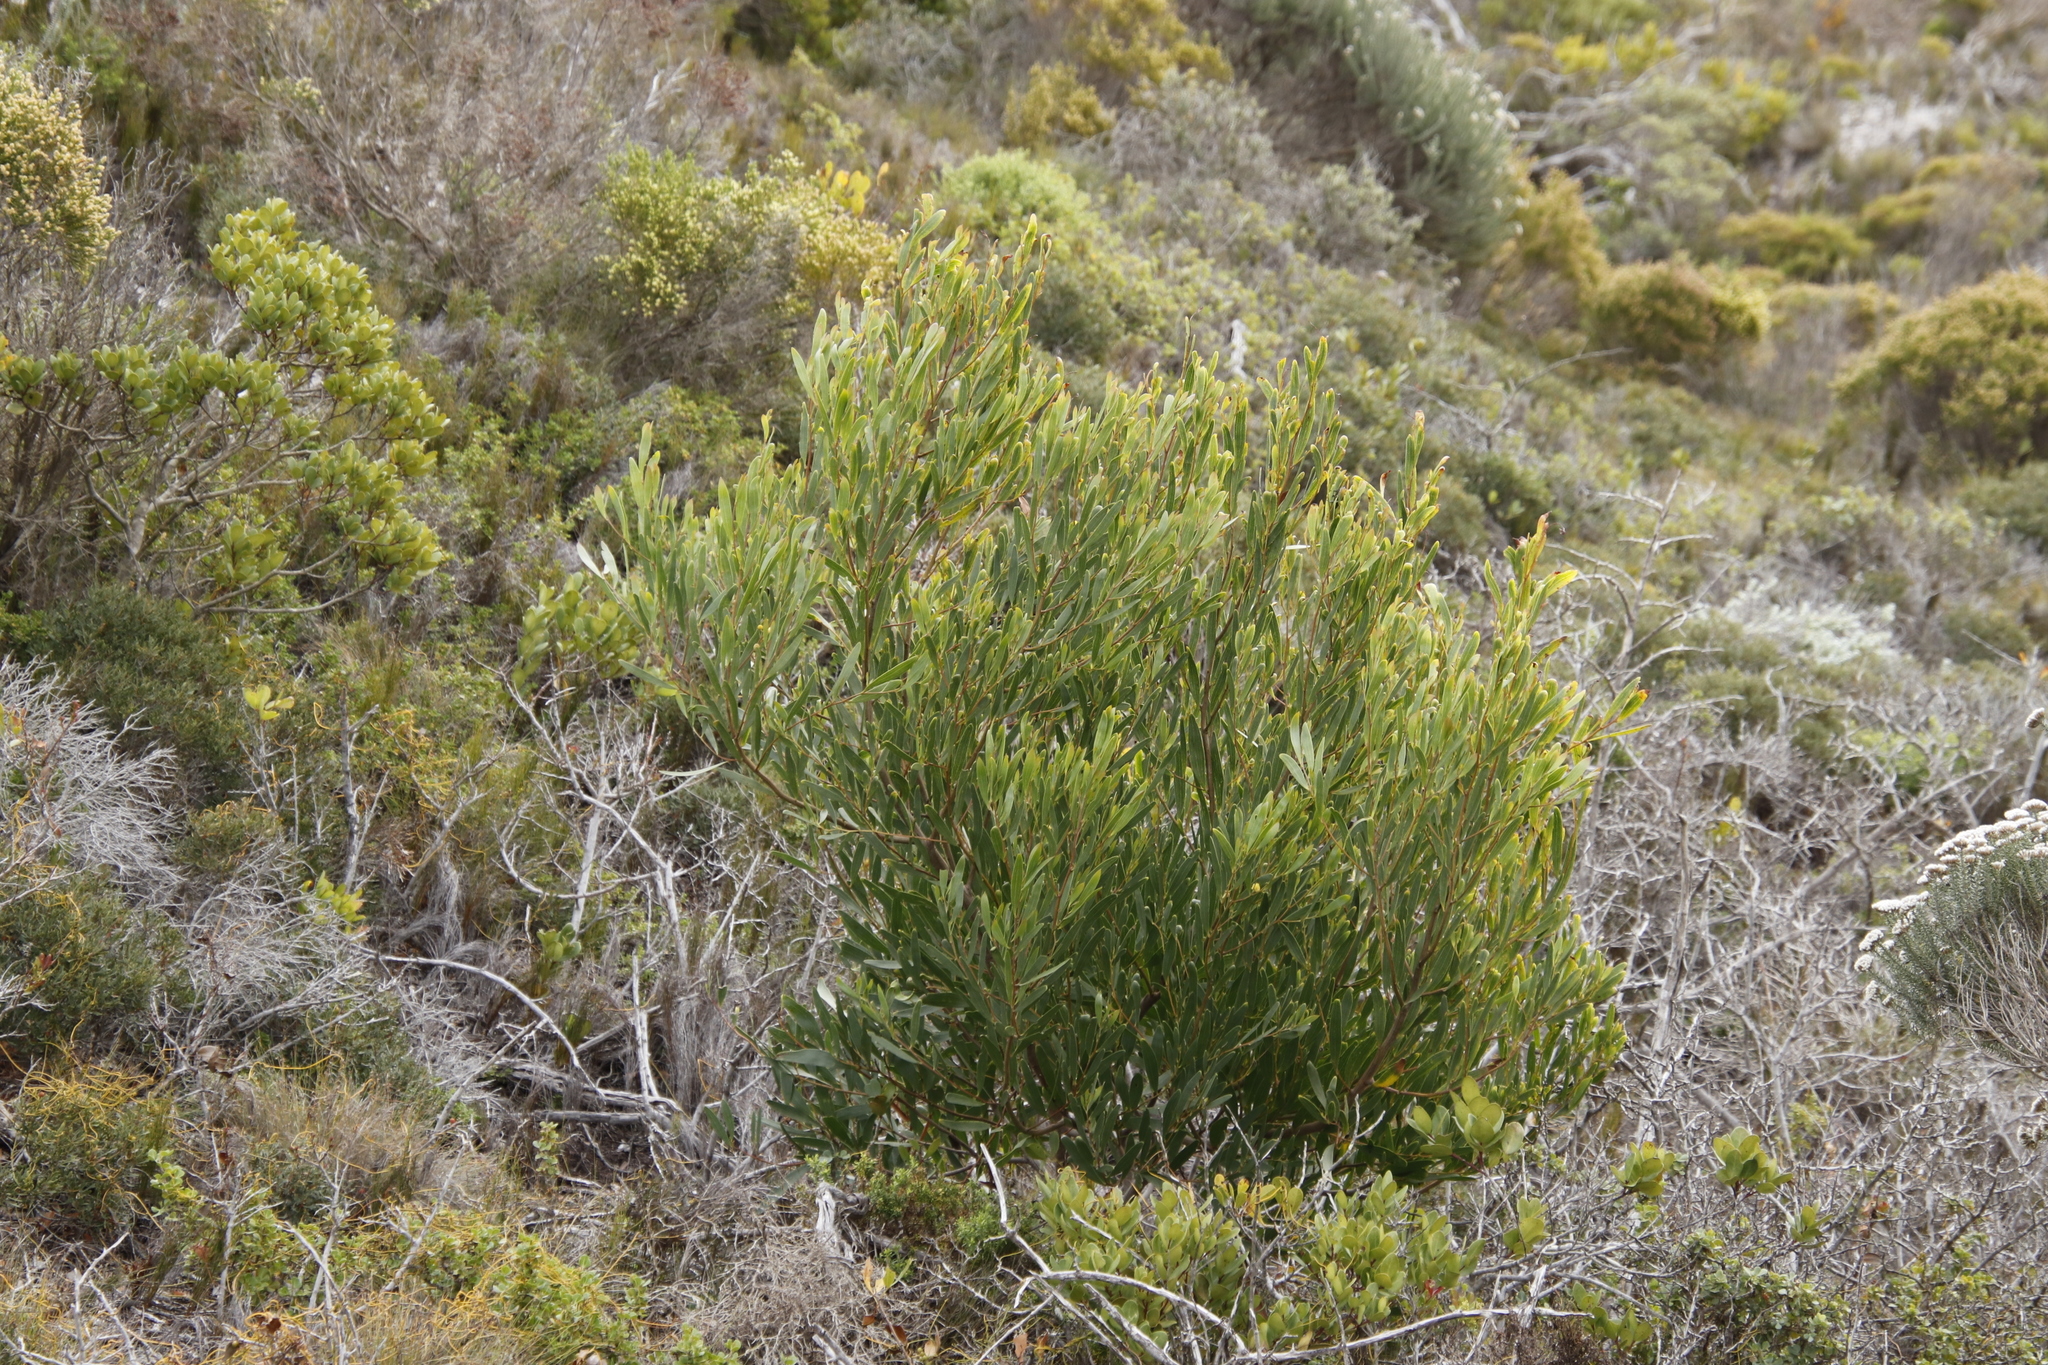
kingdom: Plantae
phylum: Tracheophyta
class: Magnoliopsida
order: Fabales
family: Fabaceae
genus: Acacia
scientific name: Acacia cyclops
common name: Coastal wattle
